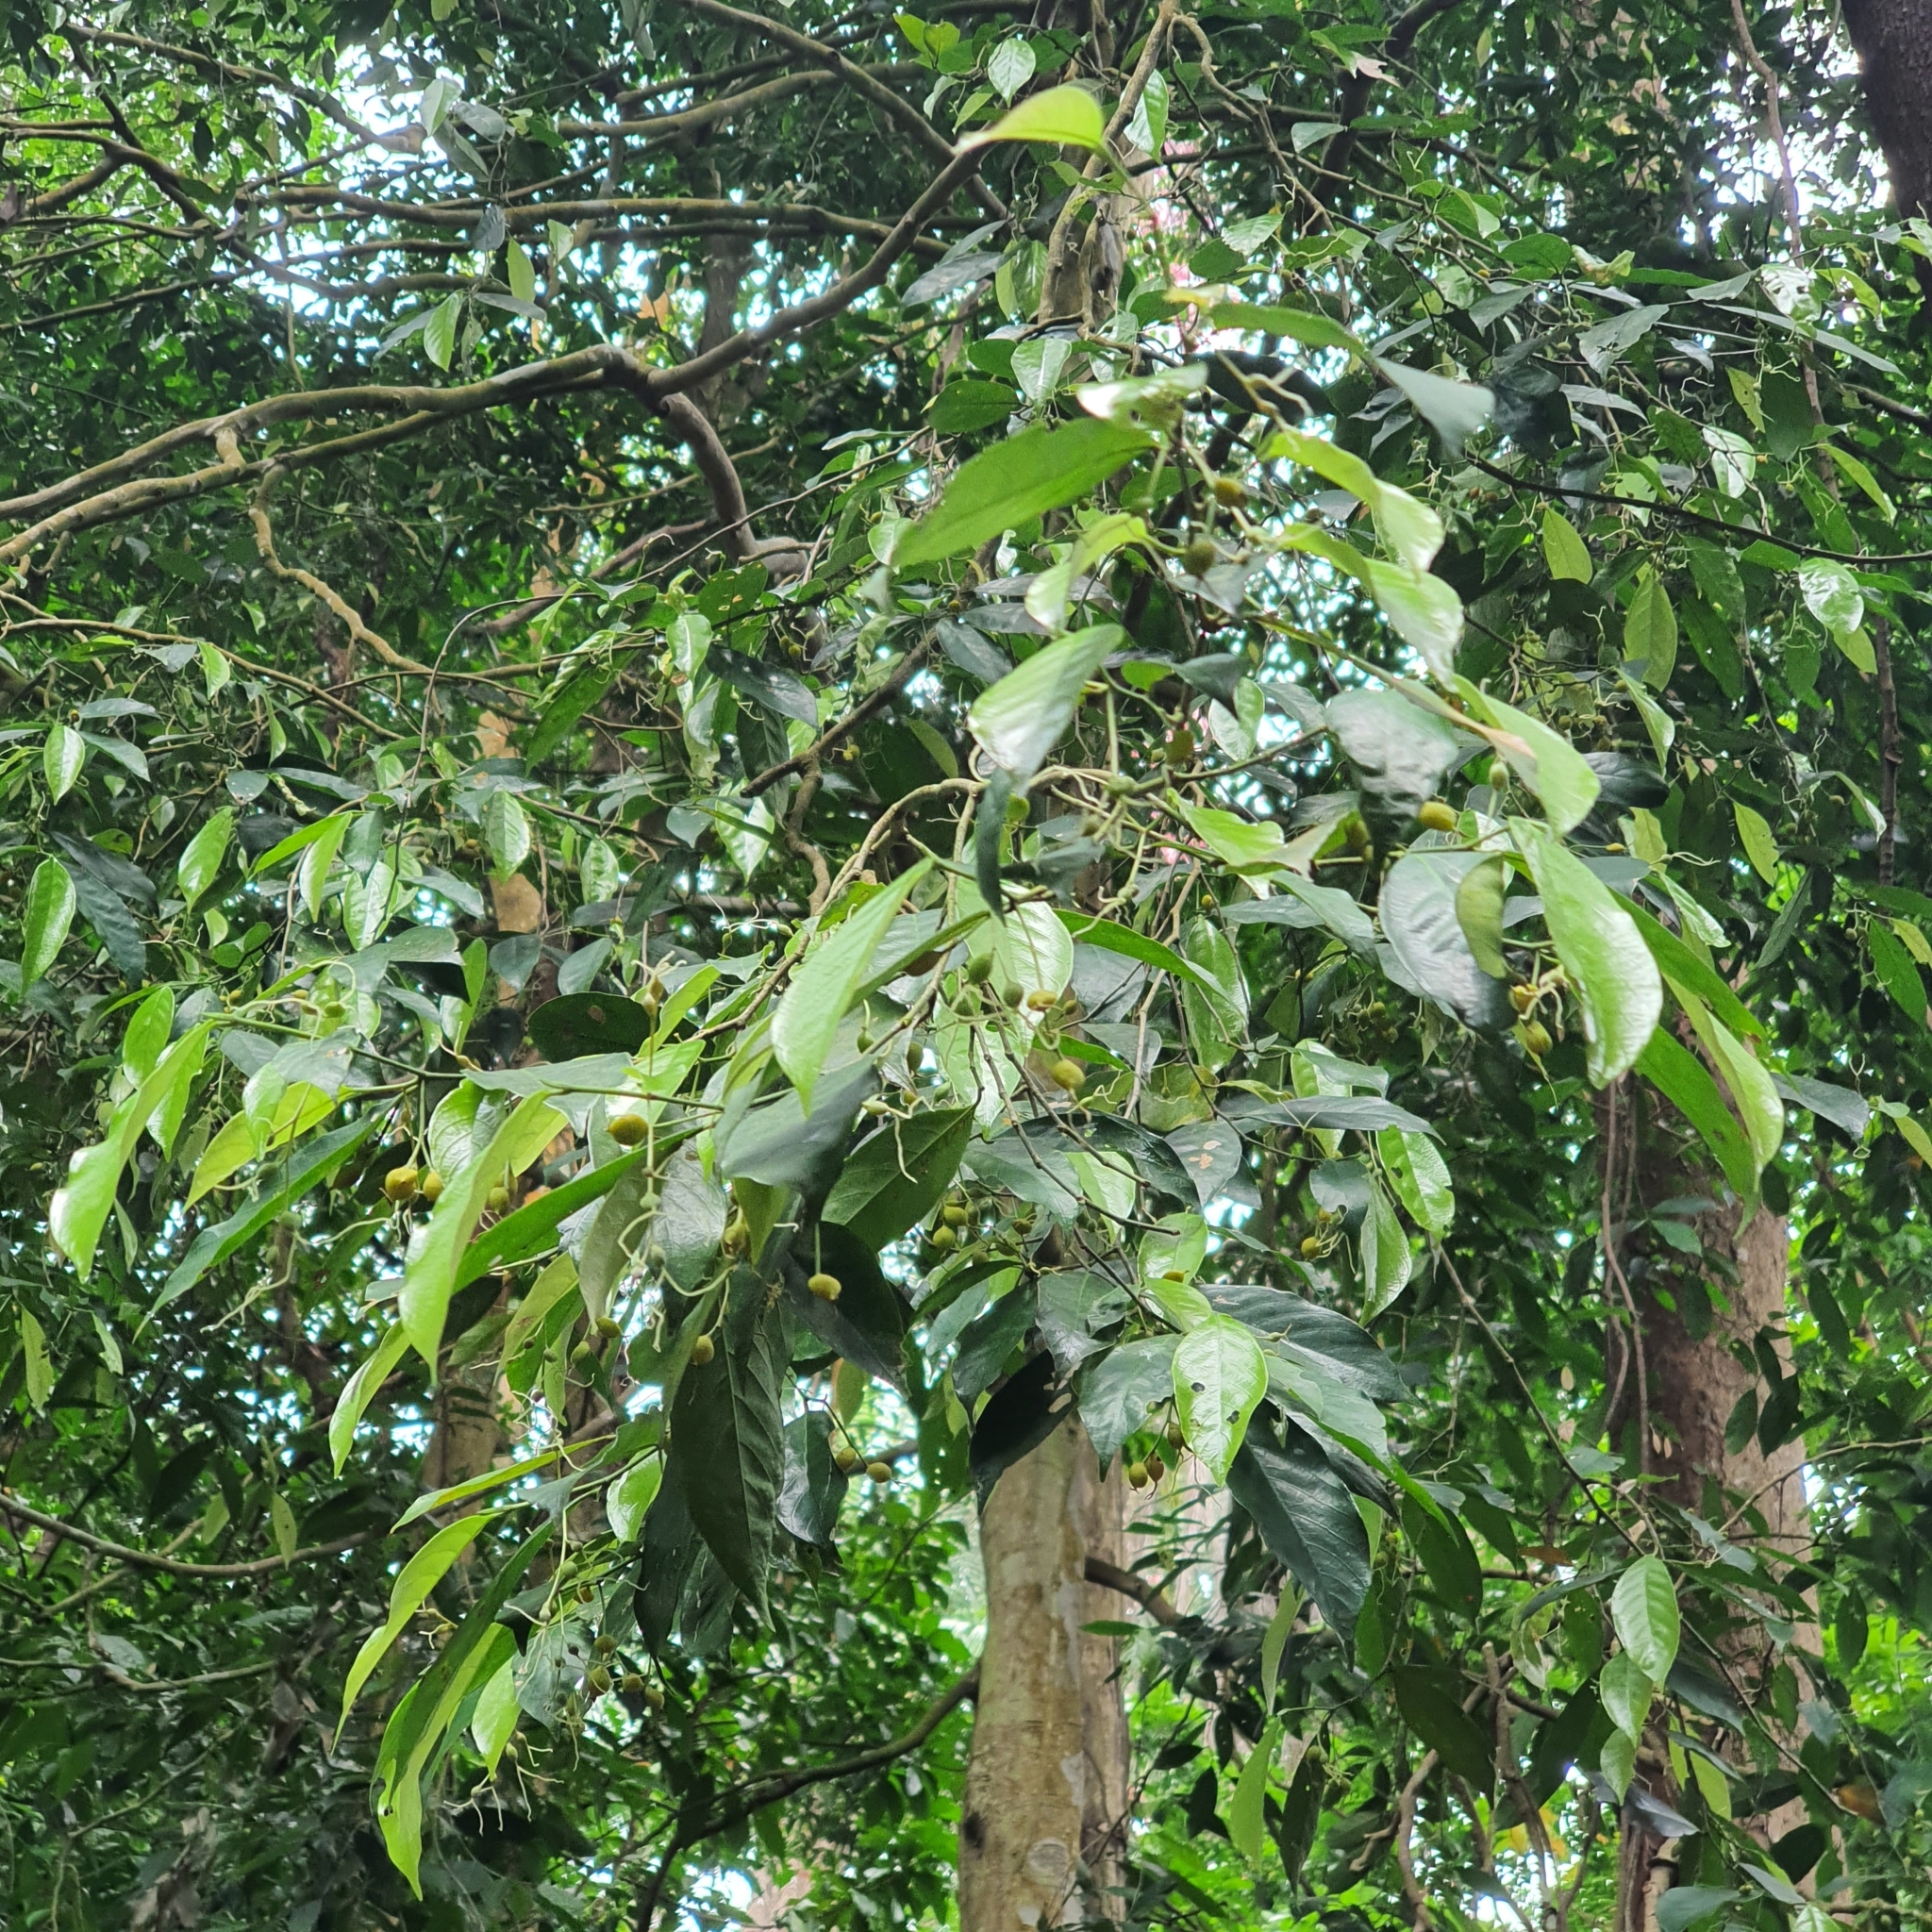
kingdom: Plantae
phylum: Tracheophyta
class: Magnoliopsida
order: Rosales
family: Cannabaceae
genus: Gironniera
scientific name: Gironniera parvifolia
